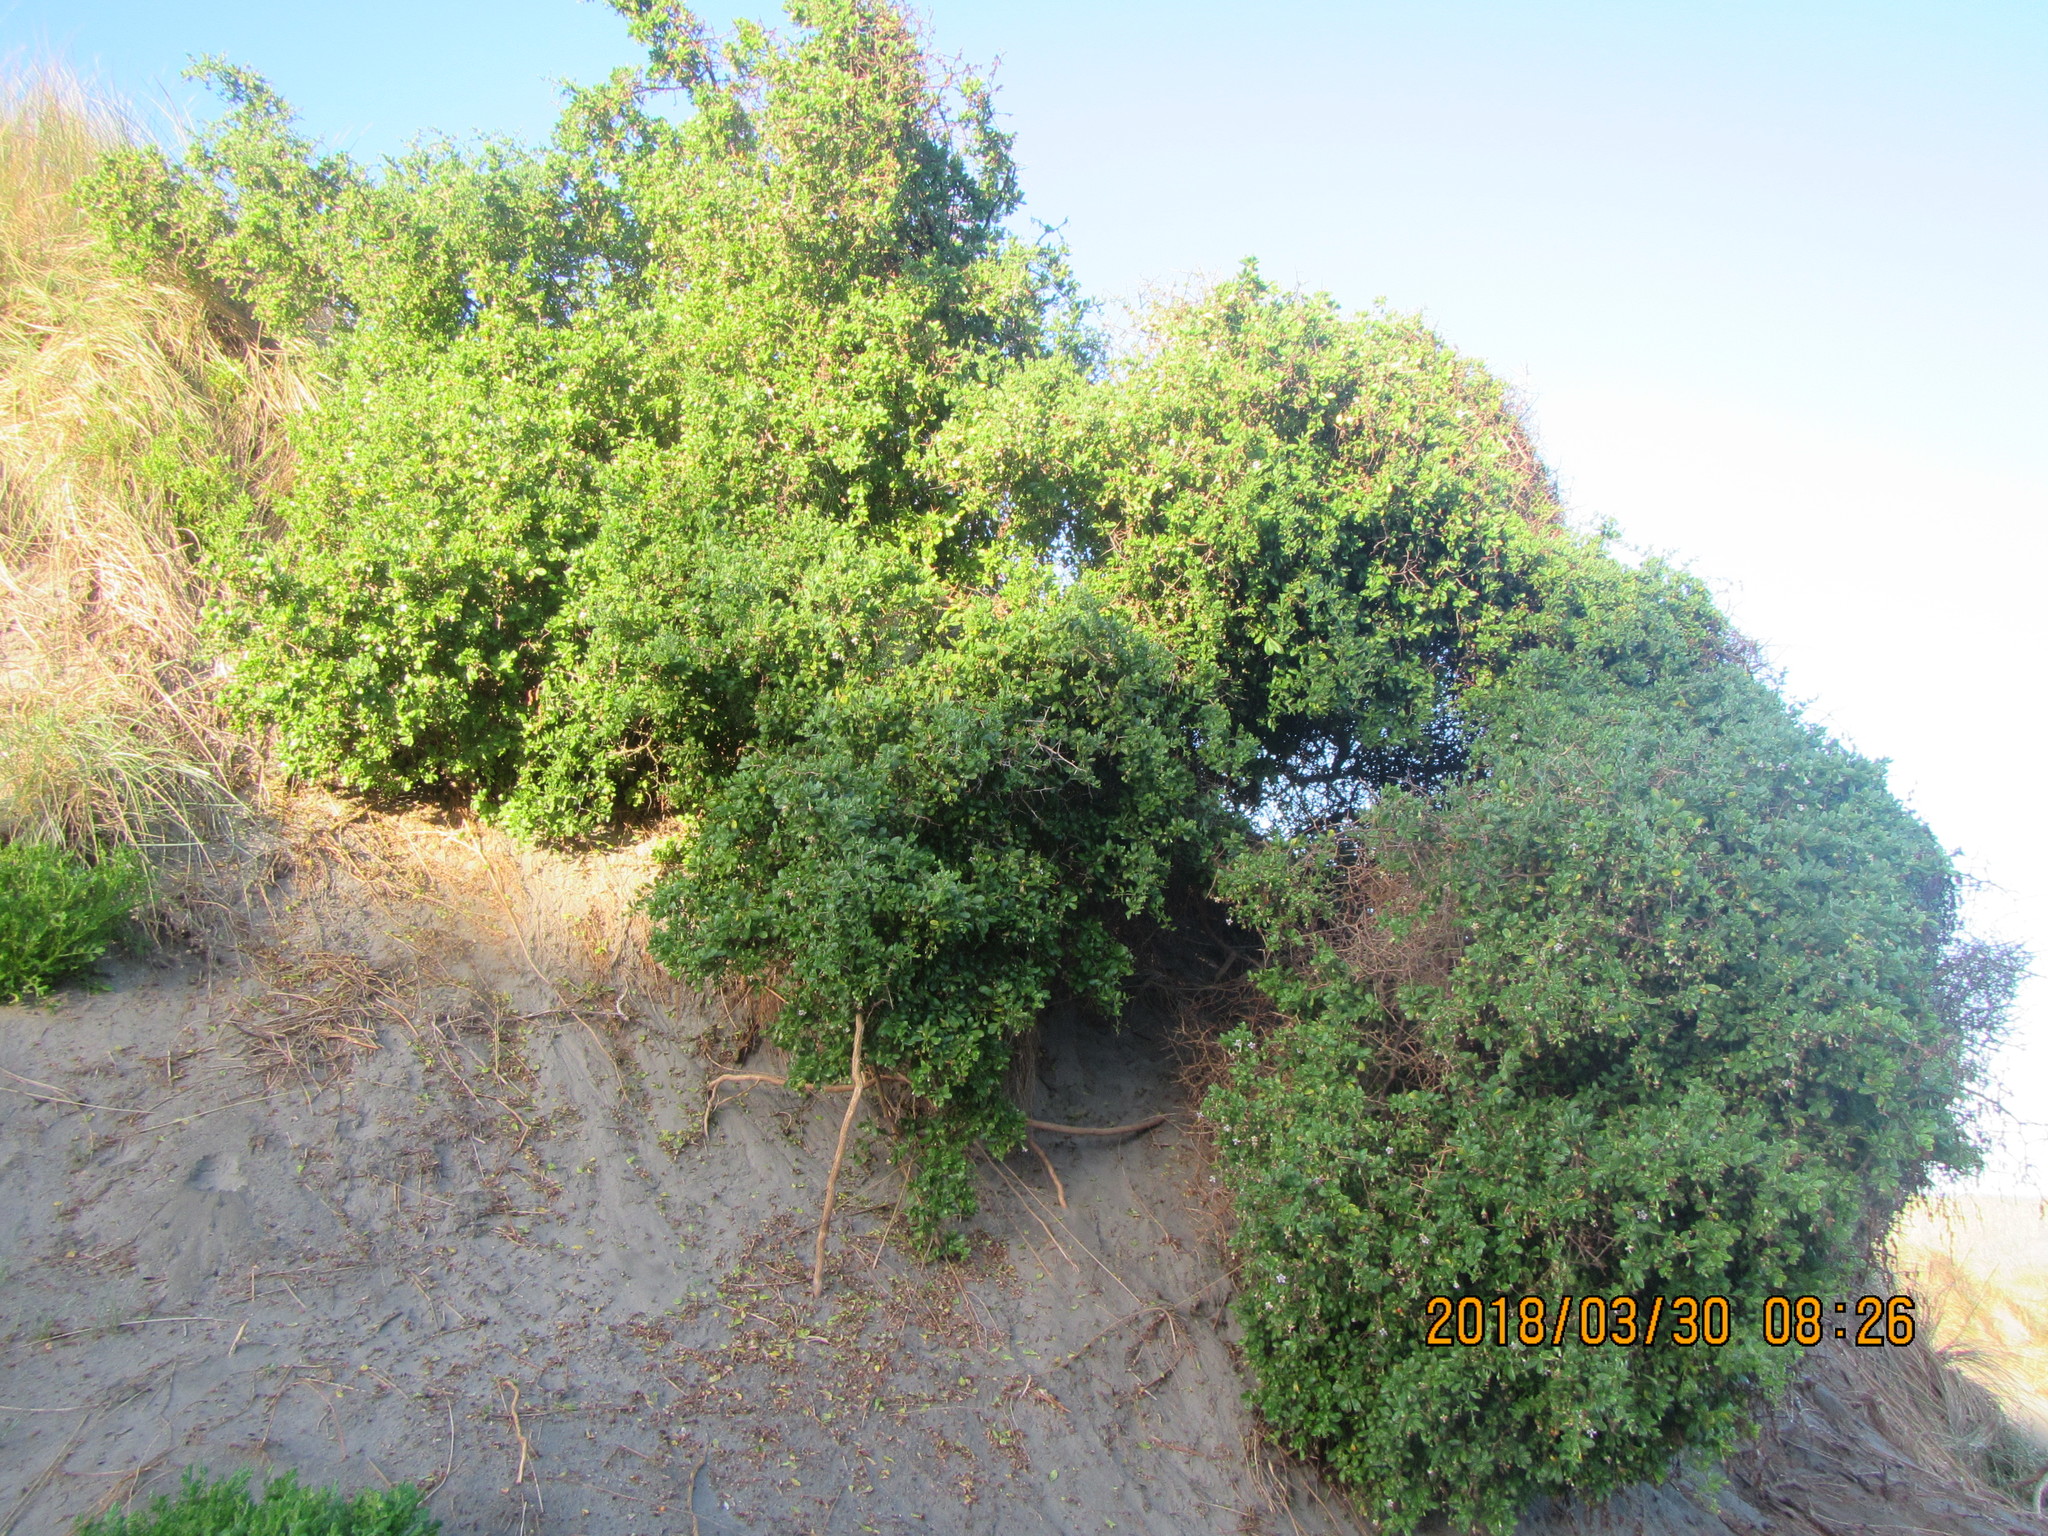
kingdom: Plantae
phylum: Tracheophyta
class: Magnoliopsida
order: Solanales
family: Solanaceae
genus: Lycium
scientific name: Lycium ferocissimum
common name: African boxthorn
